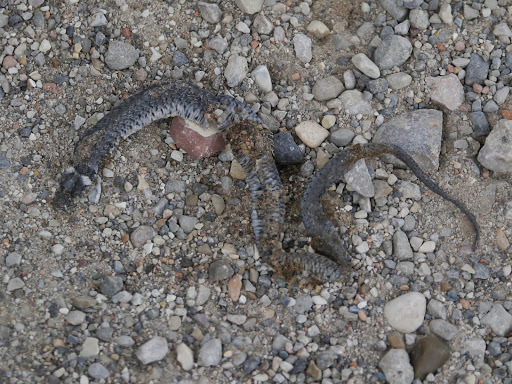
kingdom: Animalia
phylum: Chordata
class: Squamata
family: Colubridae
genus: Natrix
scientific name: Natrix helvetica
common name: Banded grass snake
